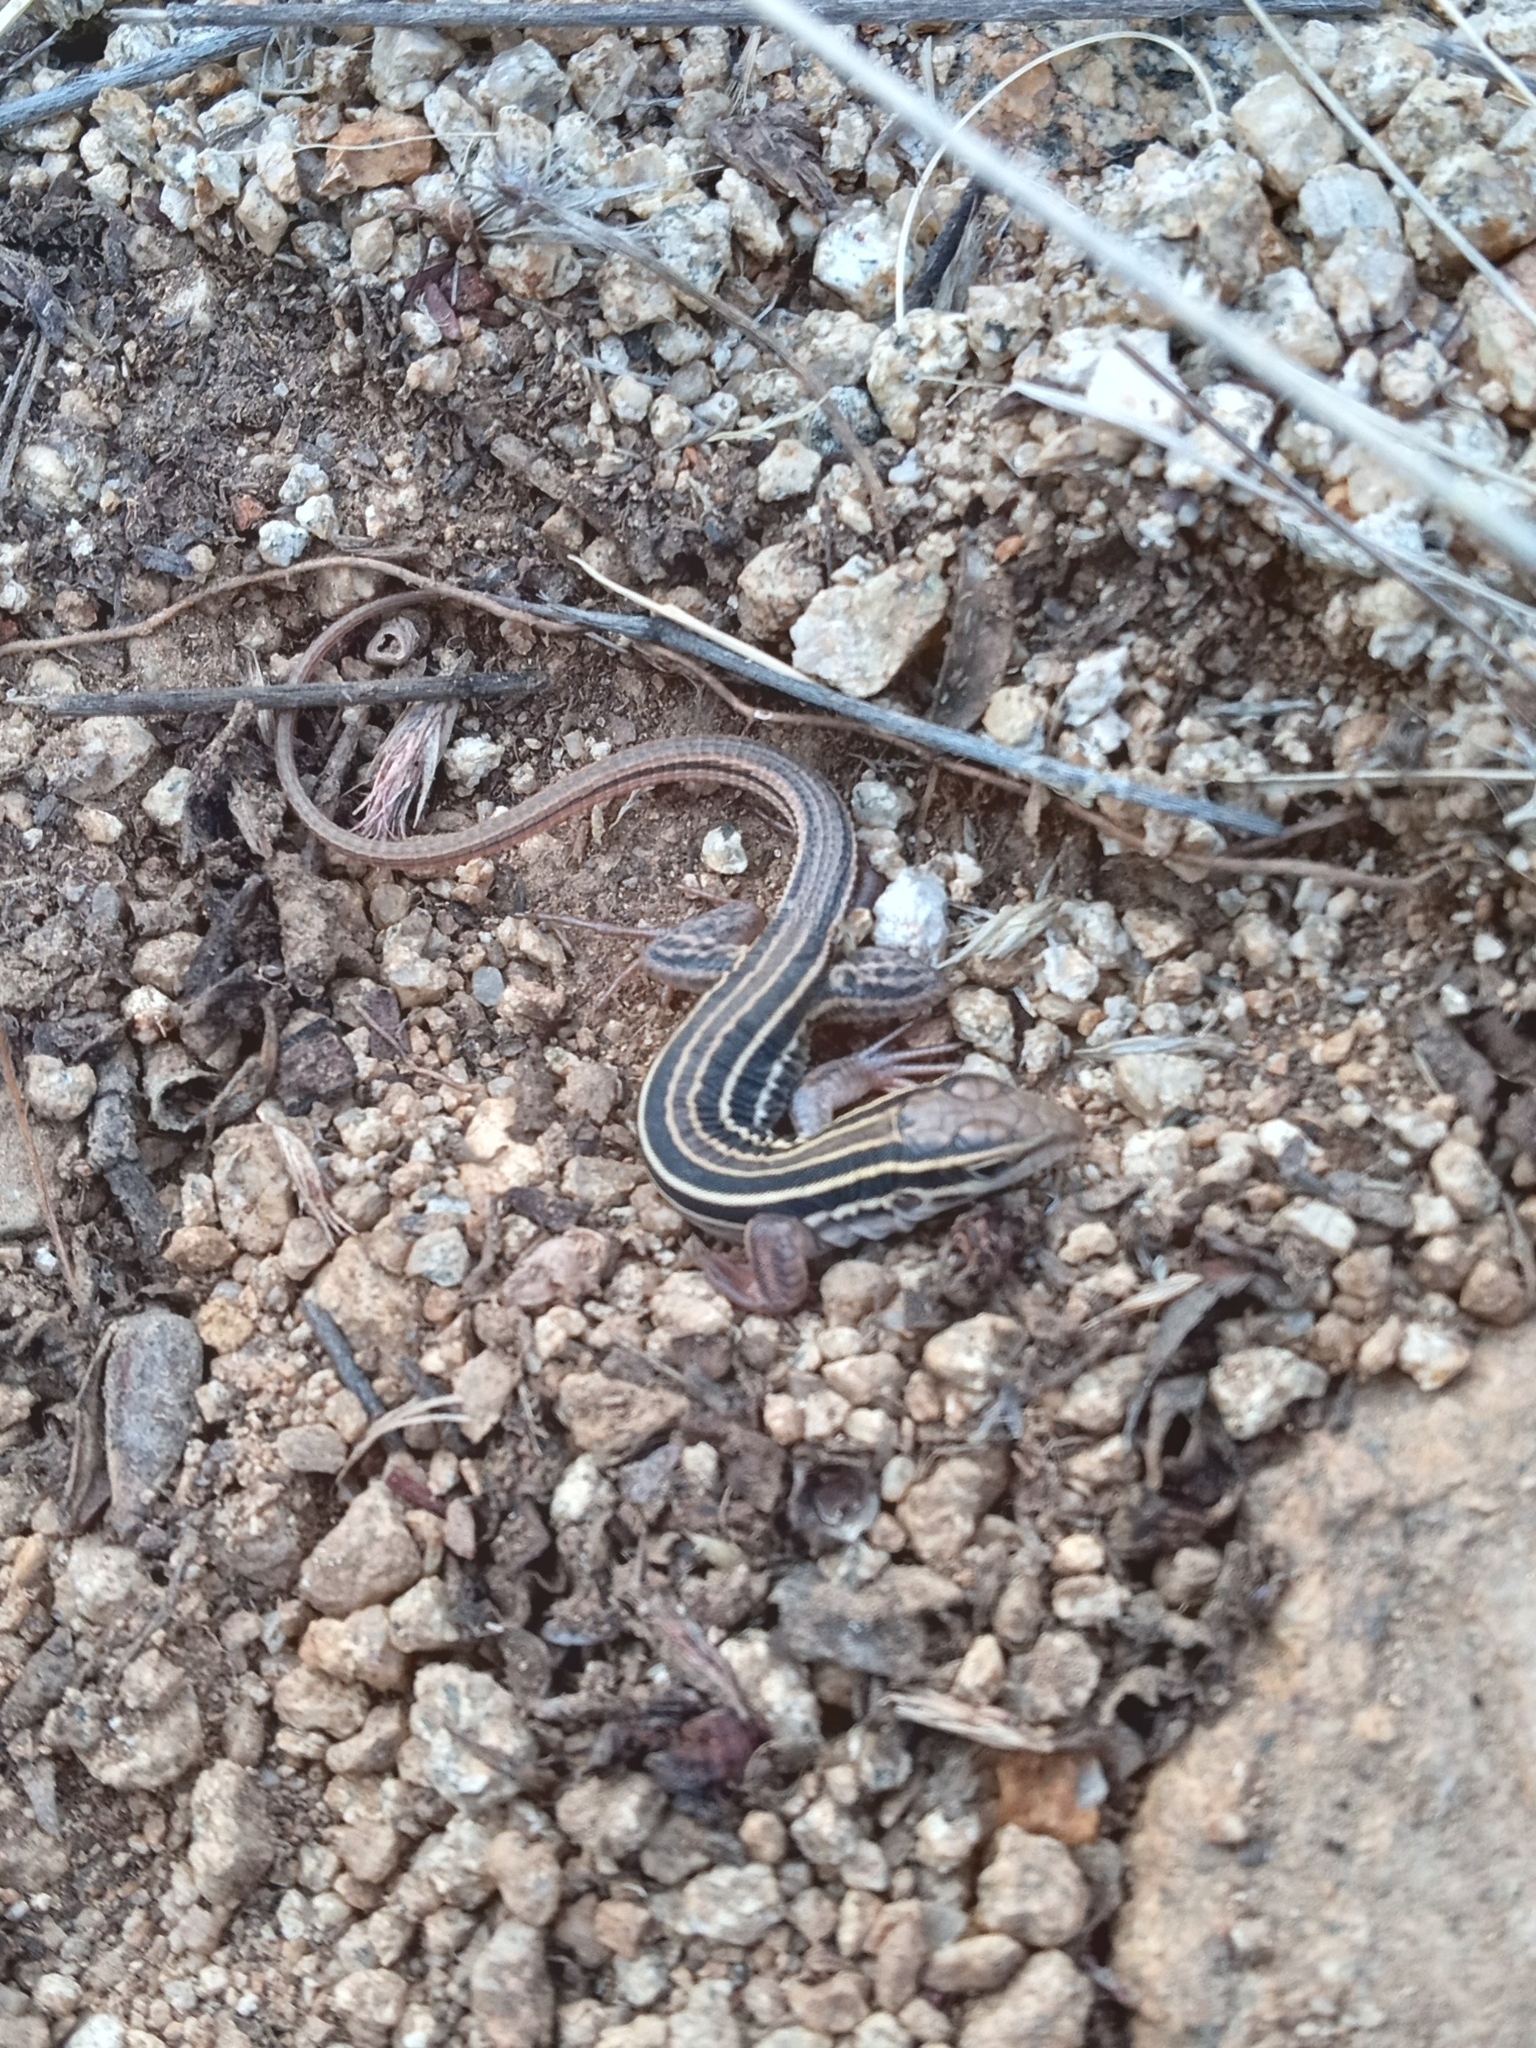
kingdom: Animalia
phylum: Chordata
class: Squamata
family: Teiidae
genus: Aspidoscelis
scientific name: Aspidoscelis uniparens
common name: Desert grassland whiptail
